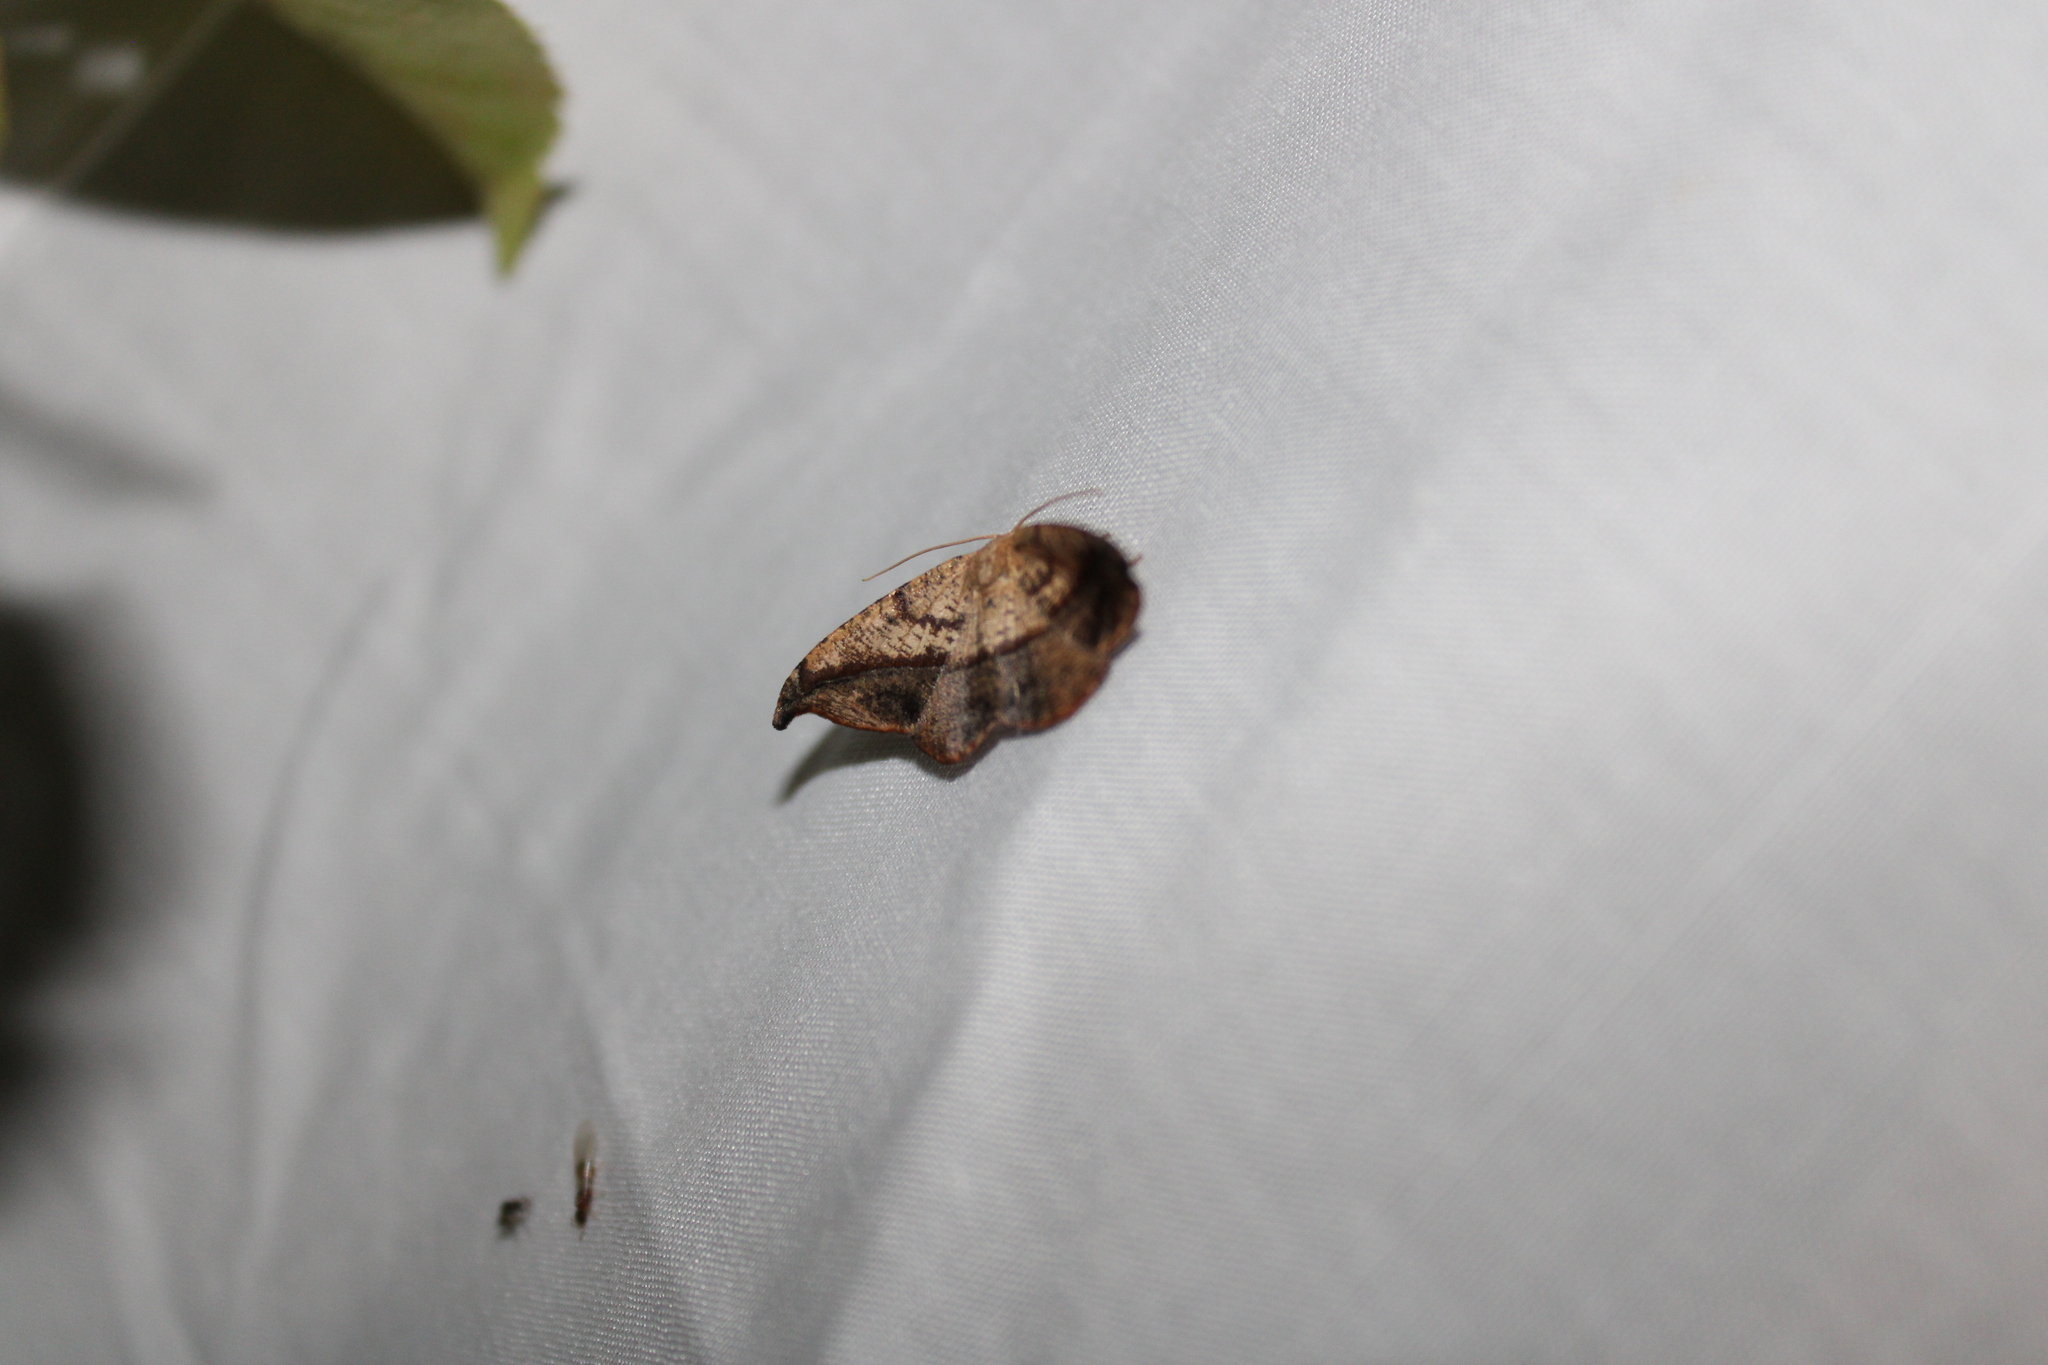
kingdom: Animalia
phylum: Arthropoda
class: Insecta
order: Lepidoptera
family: Geometridae
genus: Patalene
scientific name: Patalene olyzonaria
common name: Juniper geometer moth
